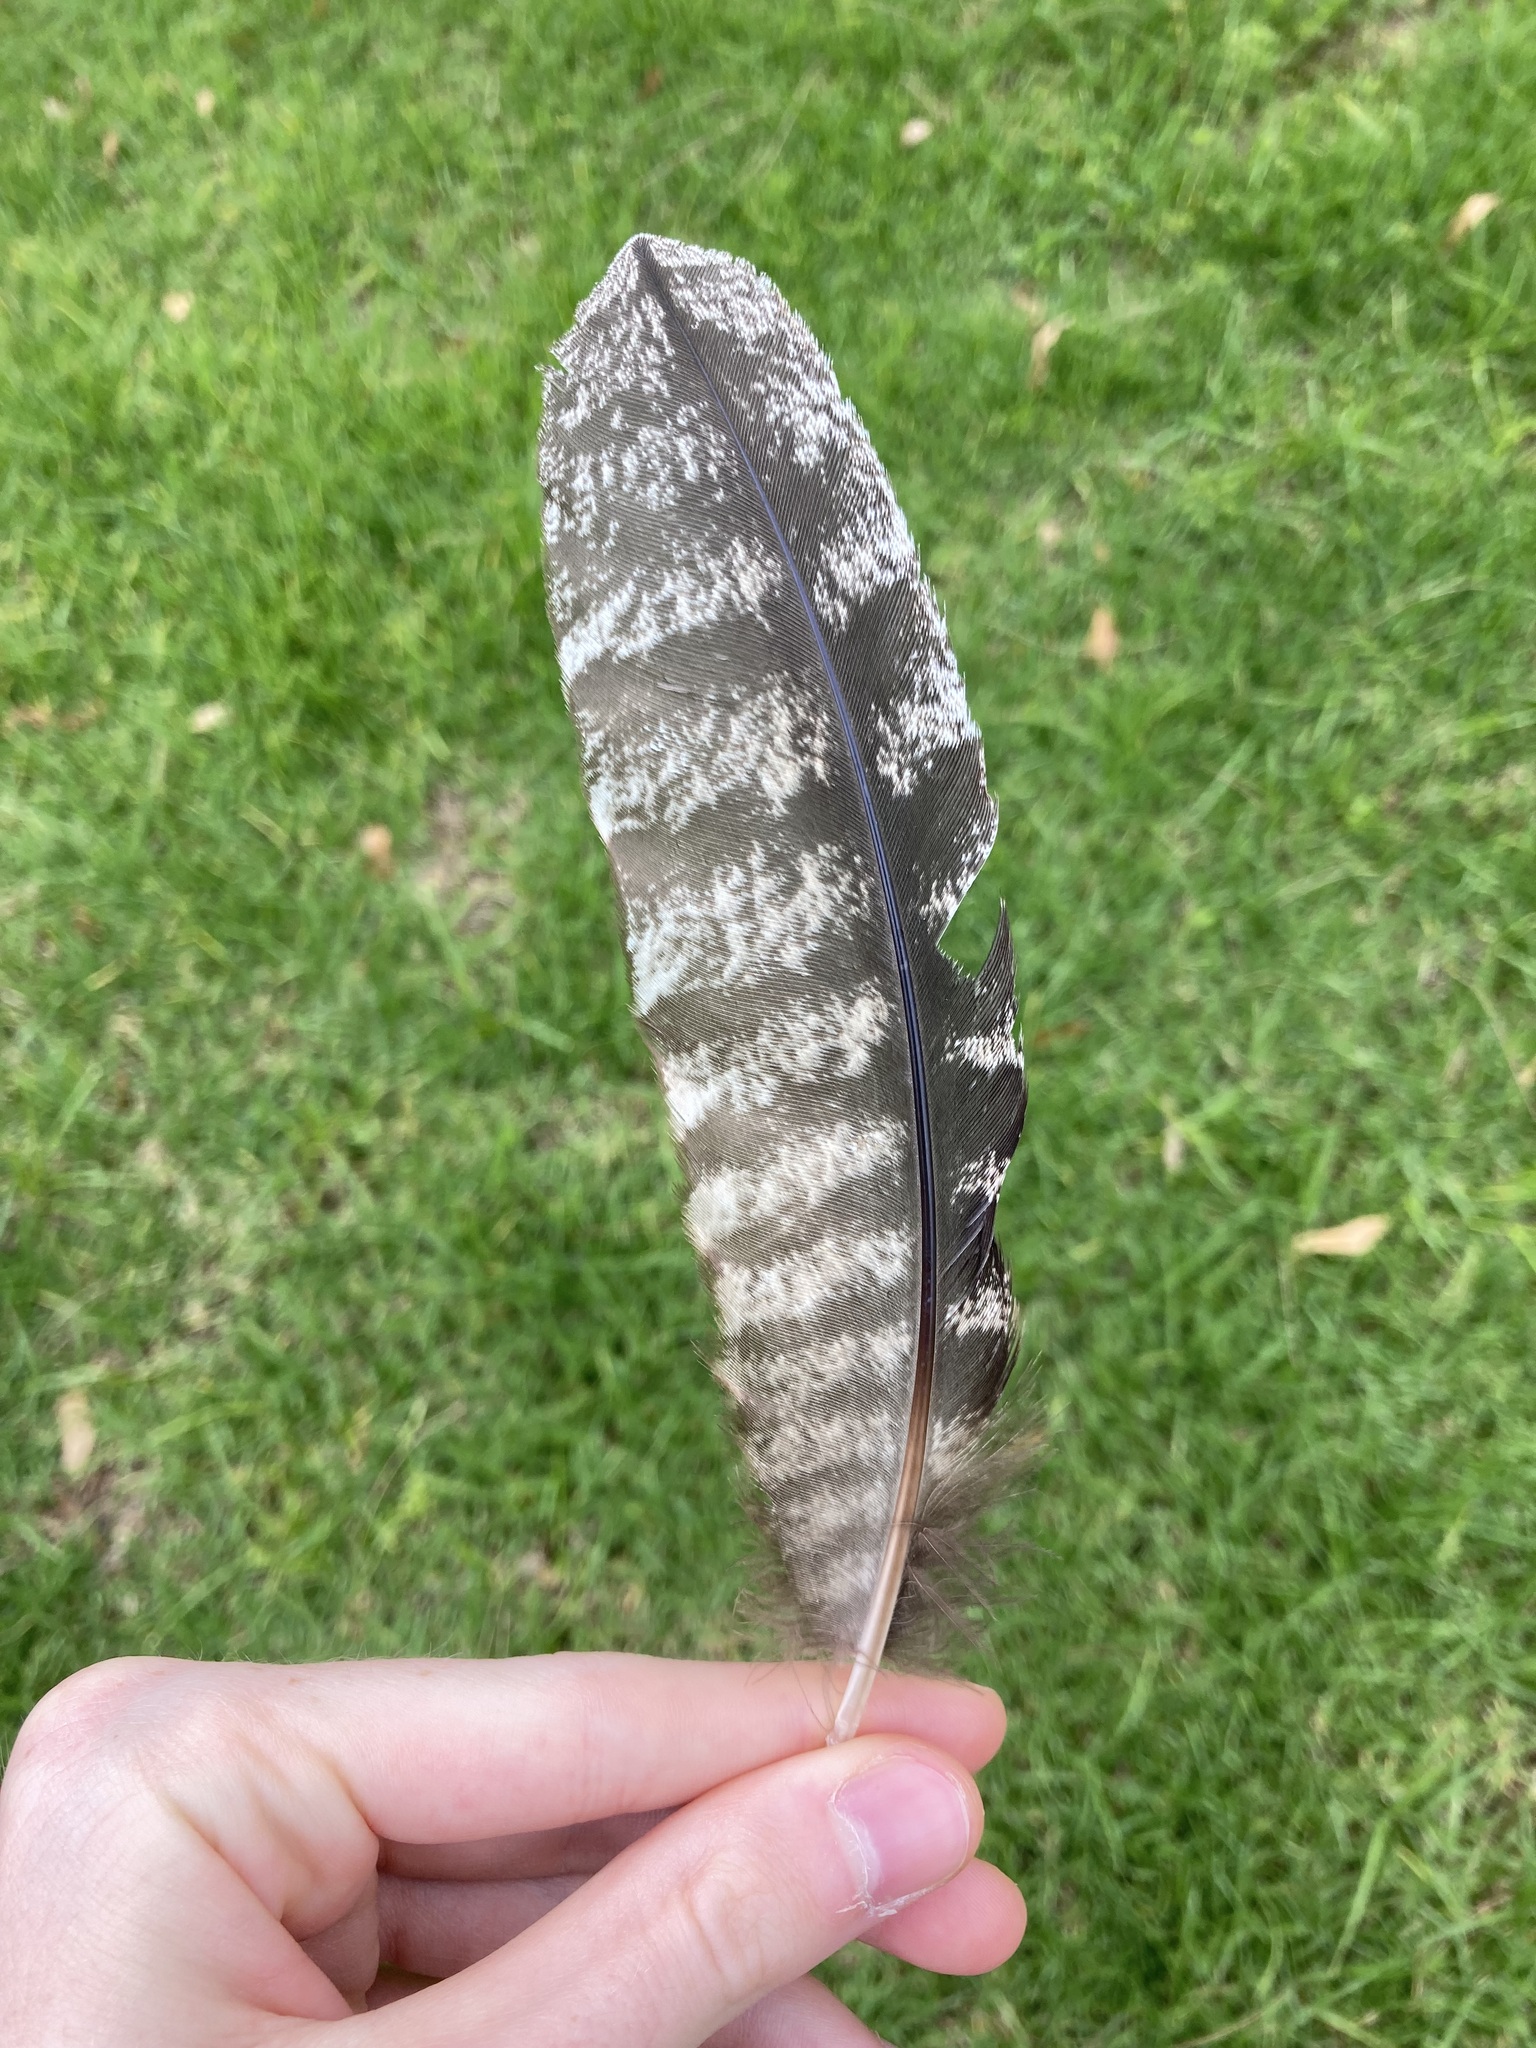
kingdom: Animalia
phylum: Chordata
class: Aves
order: Caprimulgiformes
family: Podargidae
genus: Podargus
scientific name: Podargus strigoides
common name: Tawny frogmouth
